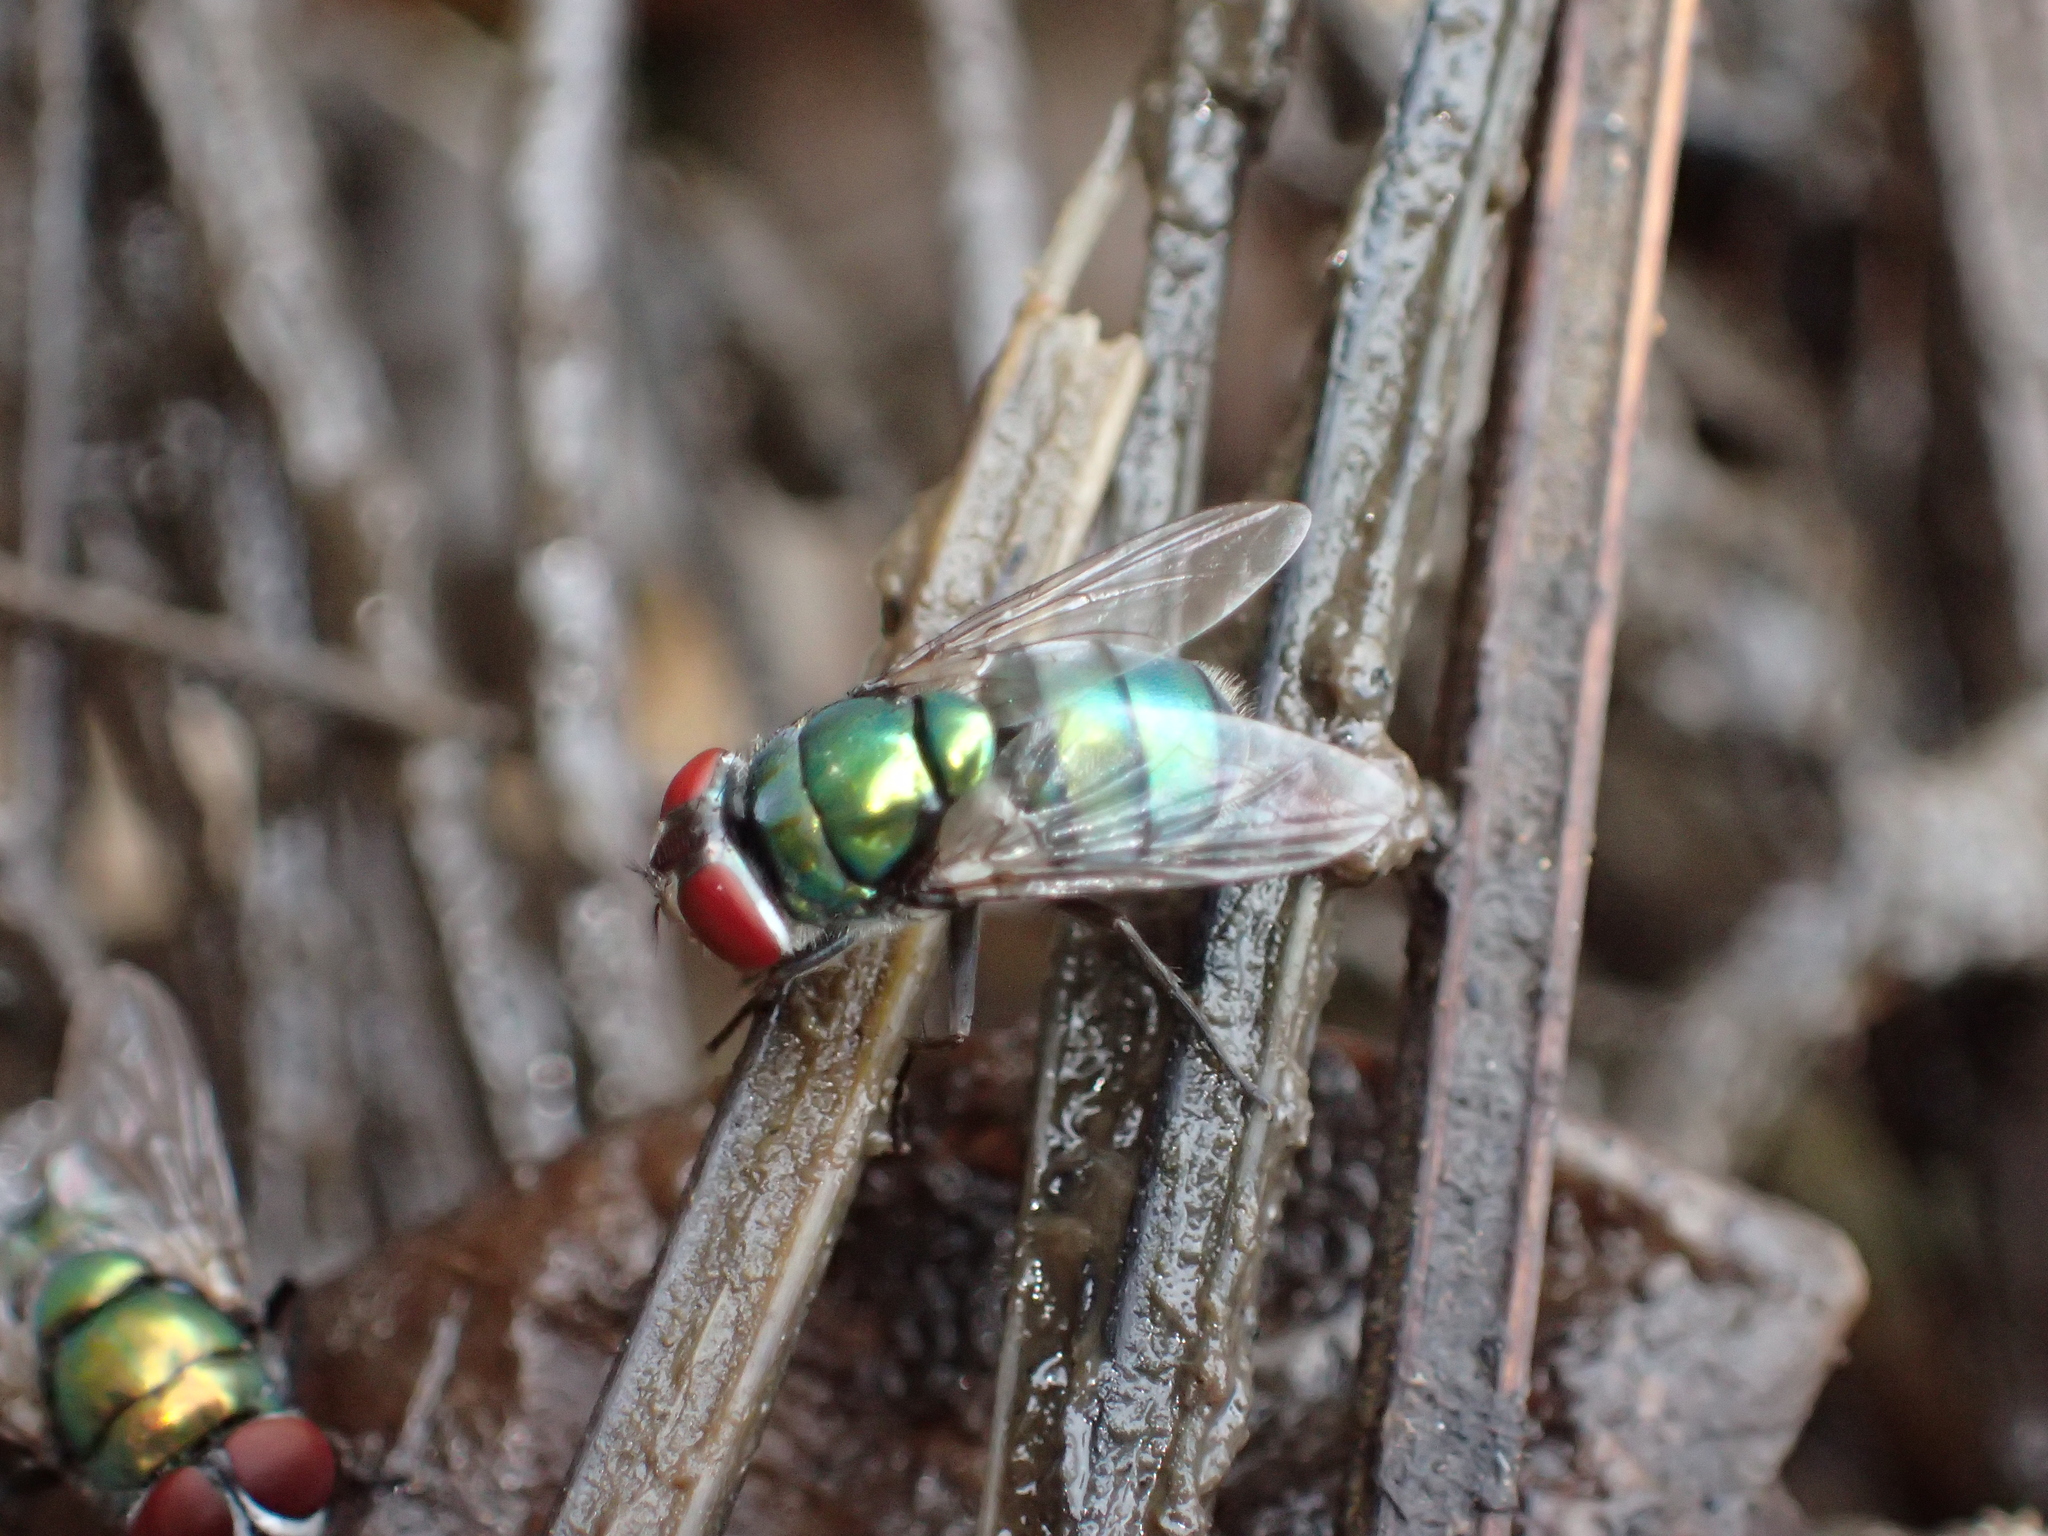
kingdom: Animalia
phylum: Arthropoda
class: Insecta
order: Diptera
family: Calliphoridae
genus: Chrysomya
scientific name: Chrysomya albiceps
